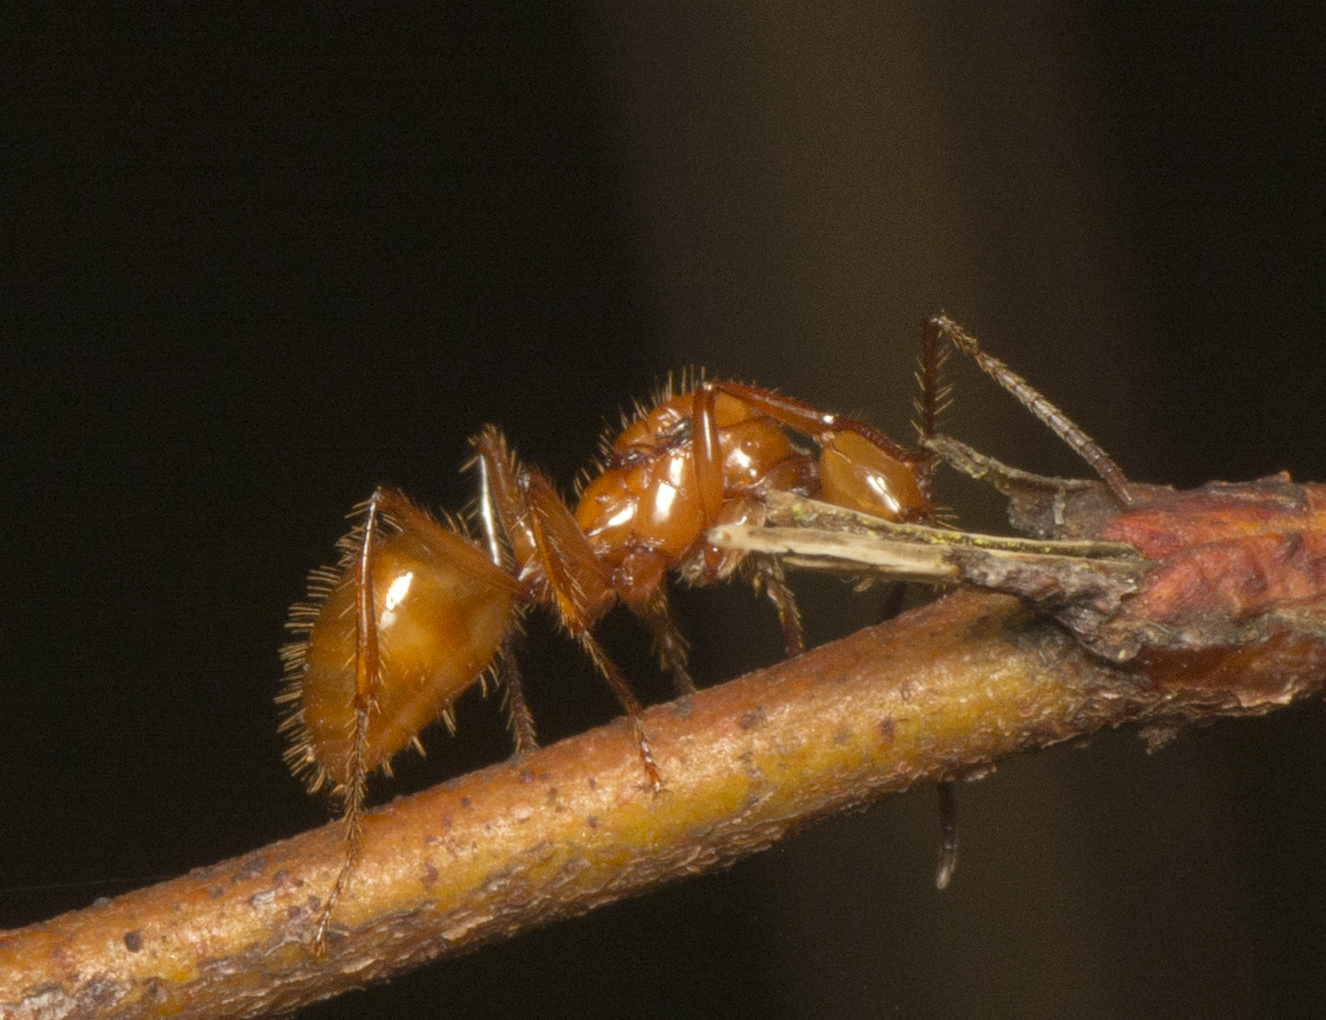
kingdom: Animalia
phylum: Arthropoda
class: Insecta
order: Hymenoptera
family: Formicidae
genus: Notoncus
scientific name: Notoncus spinisquamis
